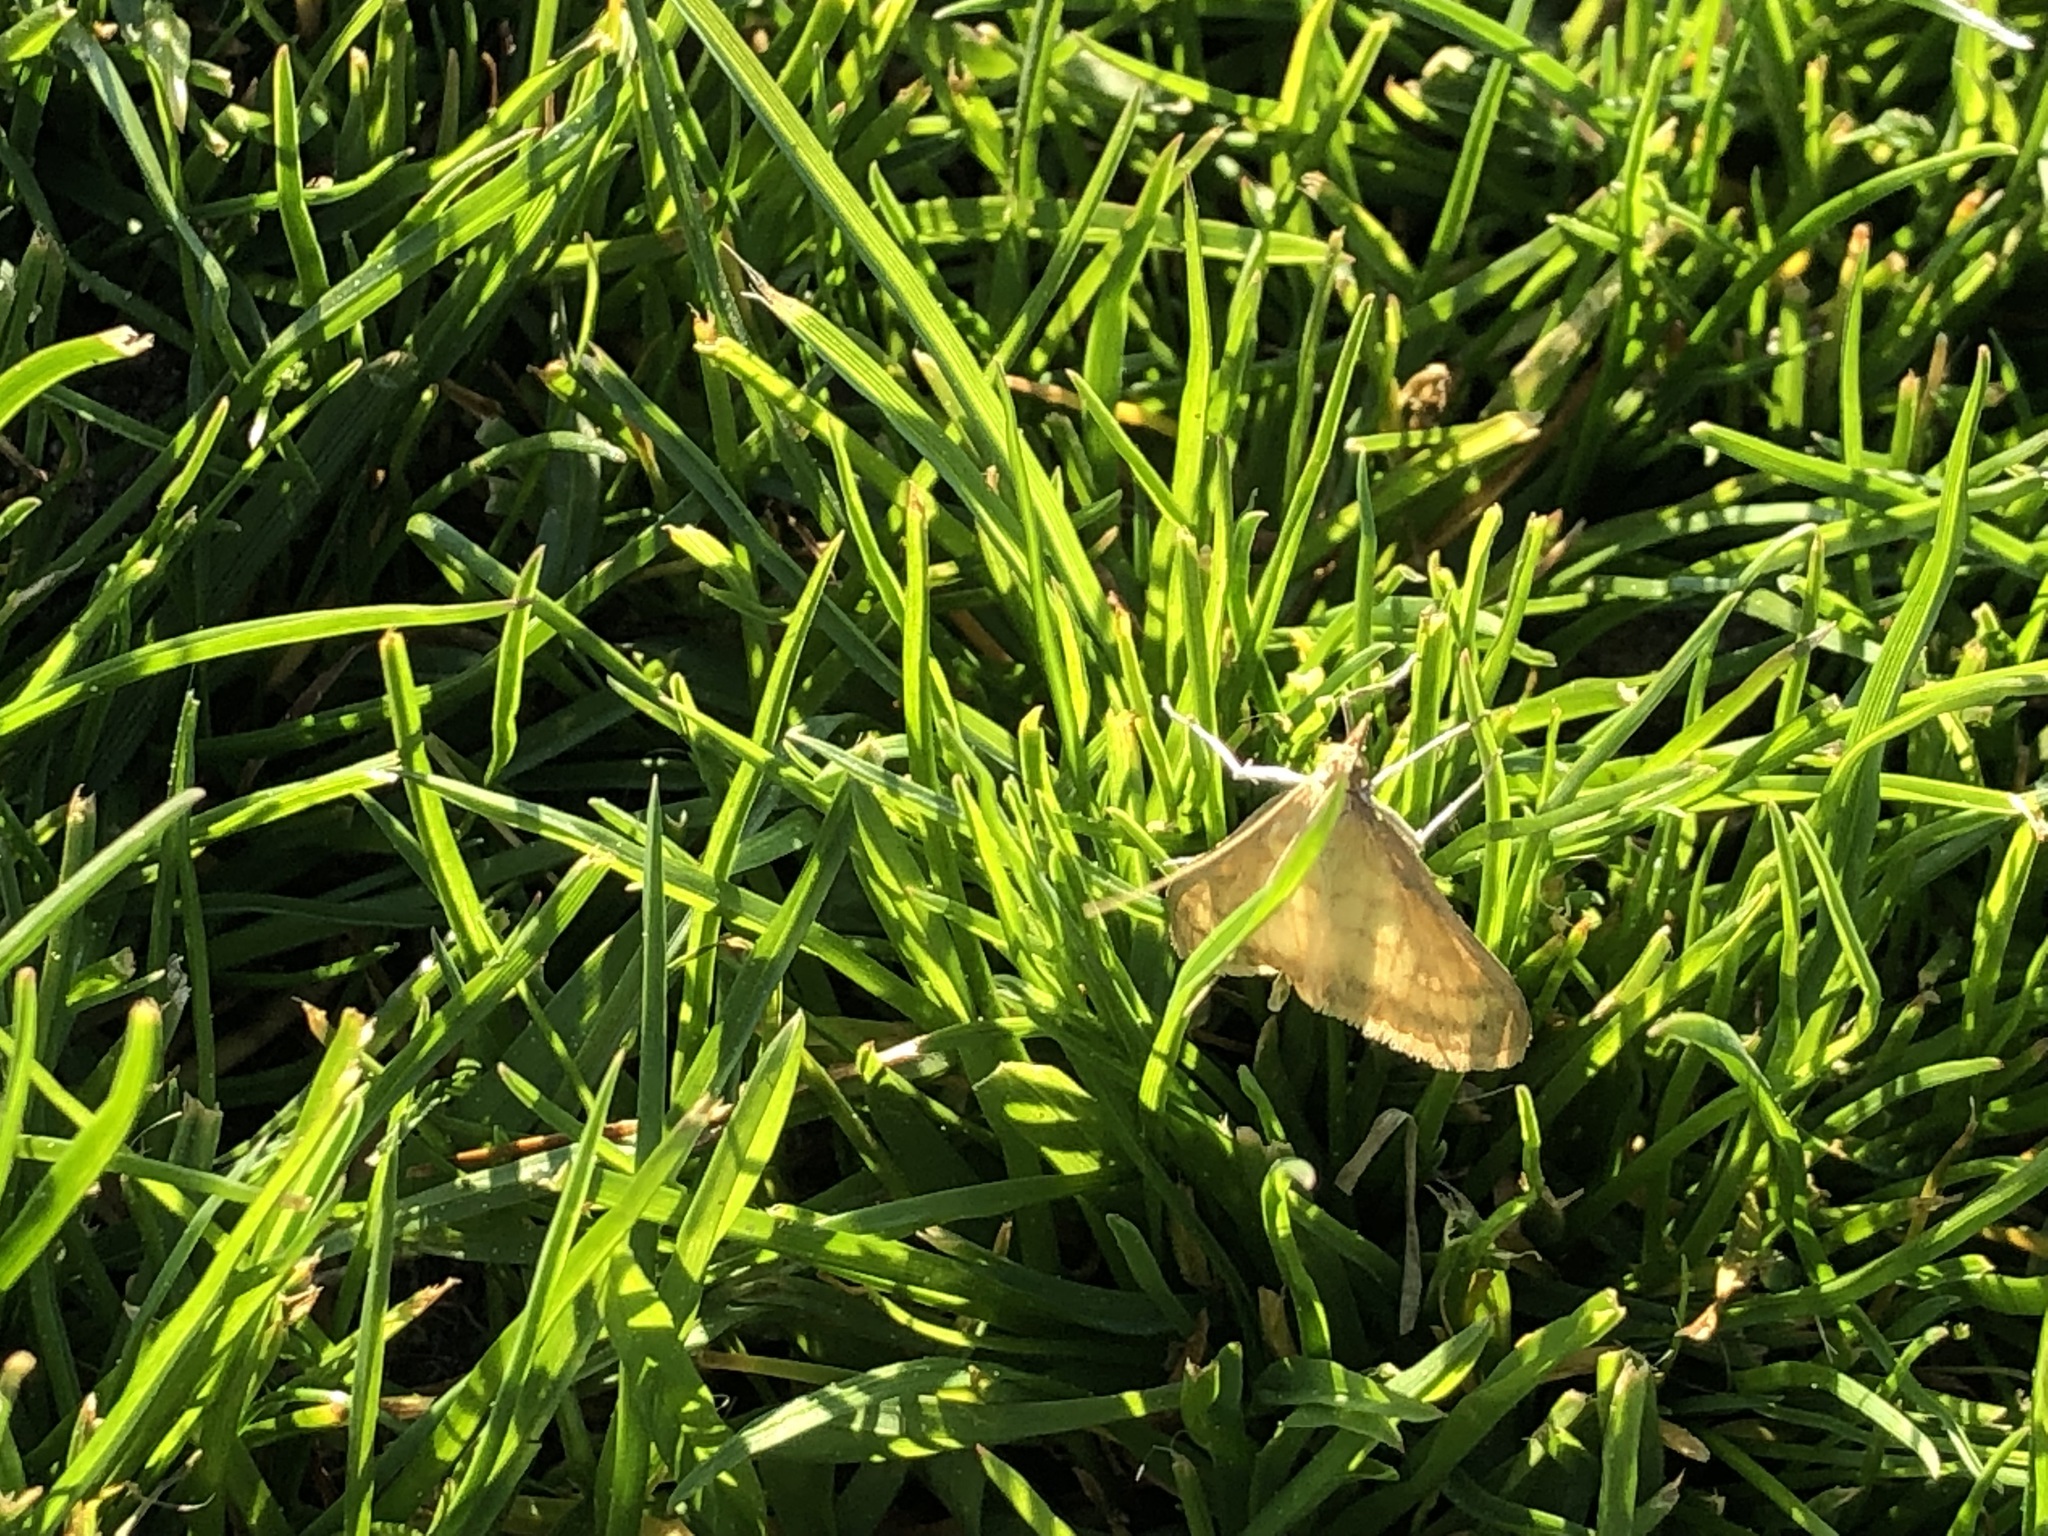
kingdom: Animalia
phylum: Arthropoda
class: Insecta
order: Lepidoptera
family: Crambidae
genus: Paratalanta
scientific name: Paratalanta pandalis
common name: Bordered pearl
